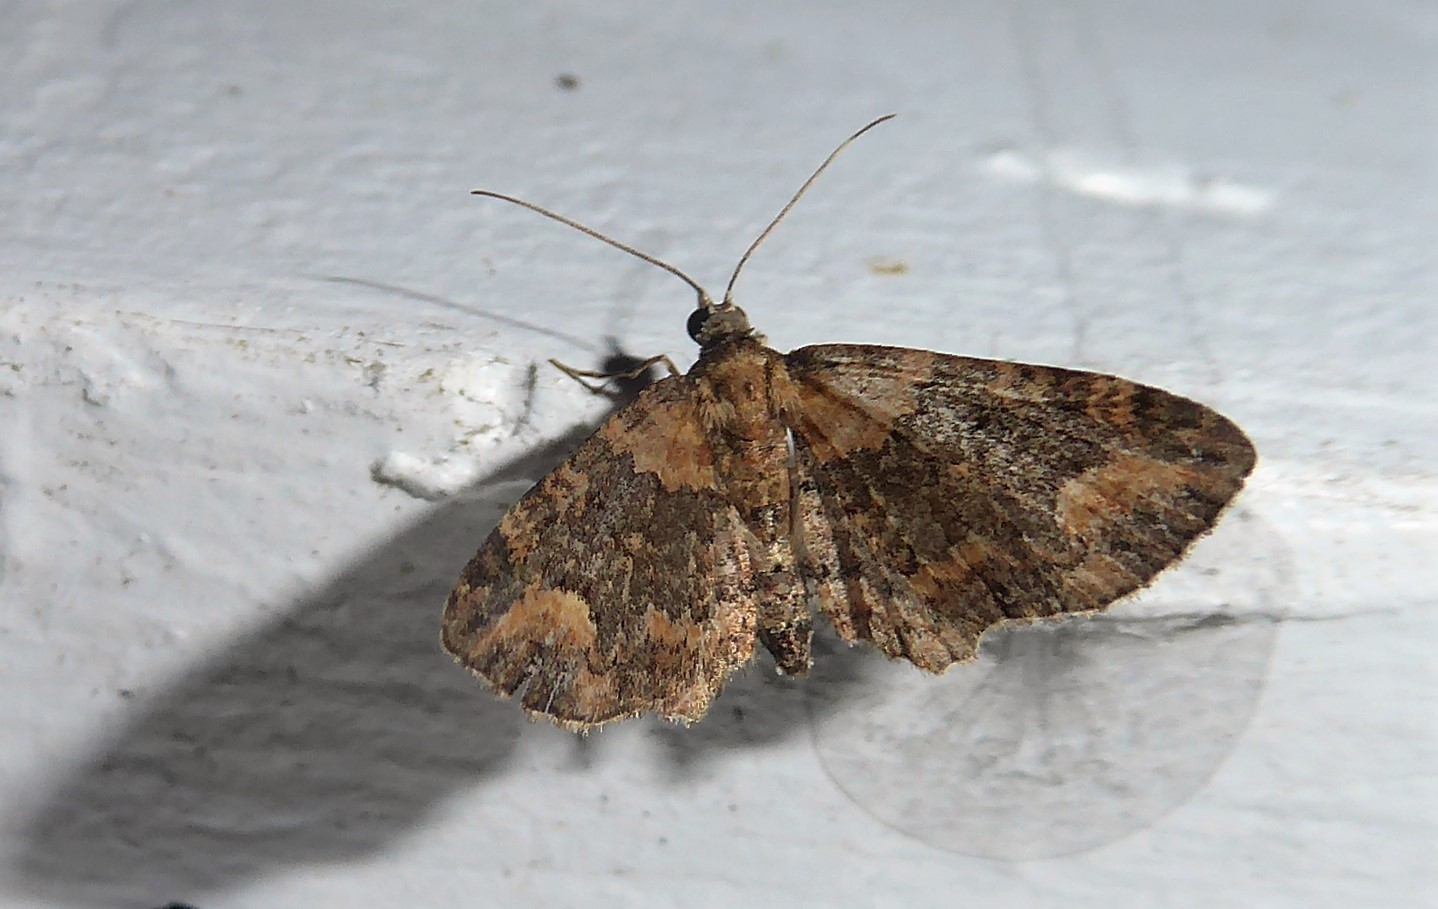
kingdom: Animalia
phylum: Arthropoda
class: Insecta
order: Lepidoptera
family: Geometridae
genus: Pasiphilodes
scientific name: Pasiphilodes testulata
